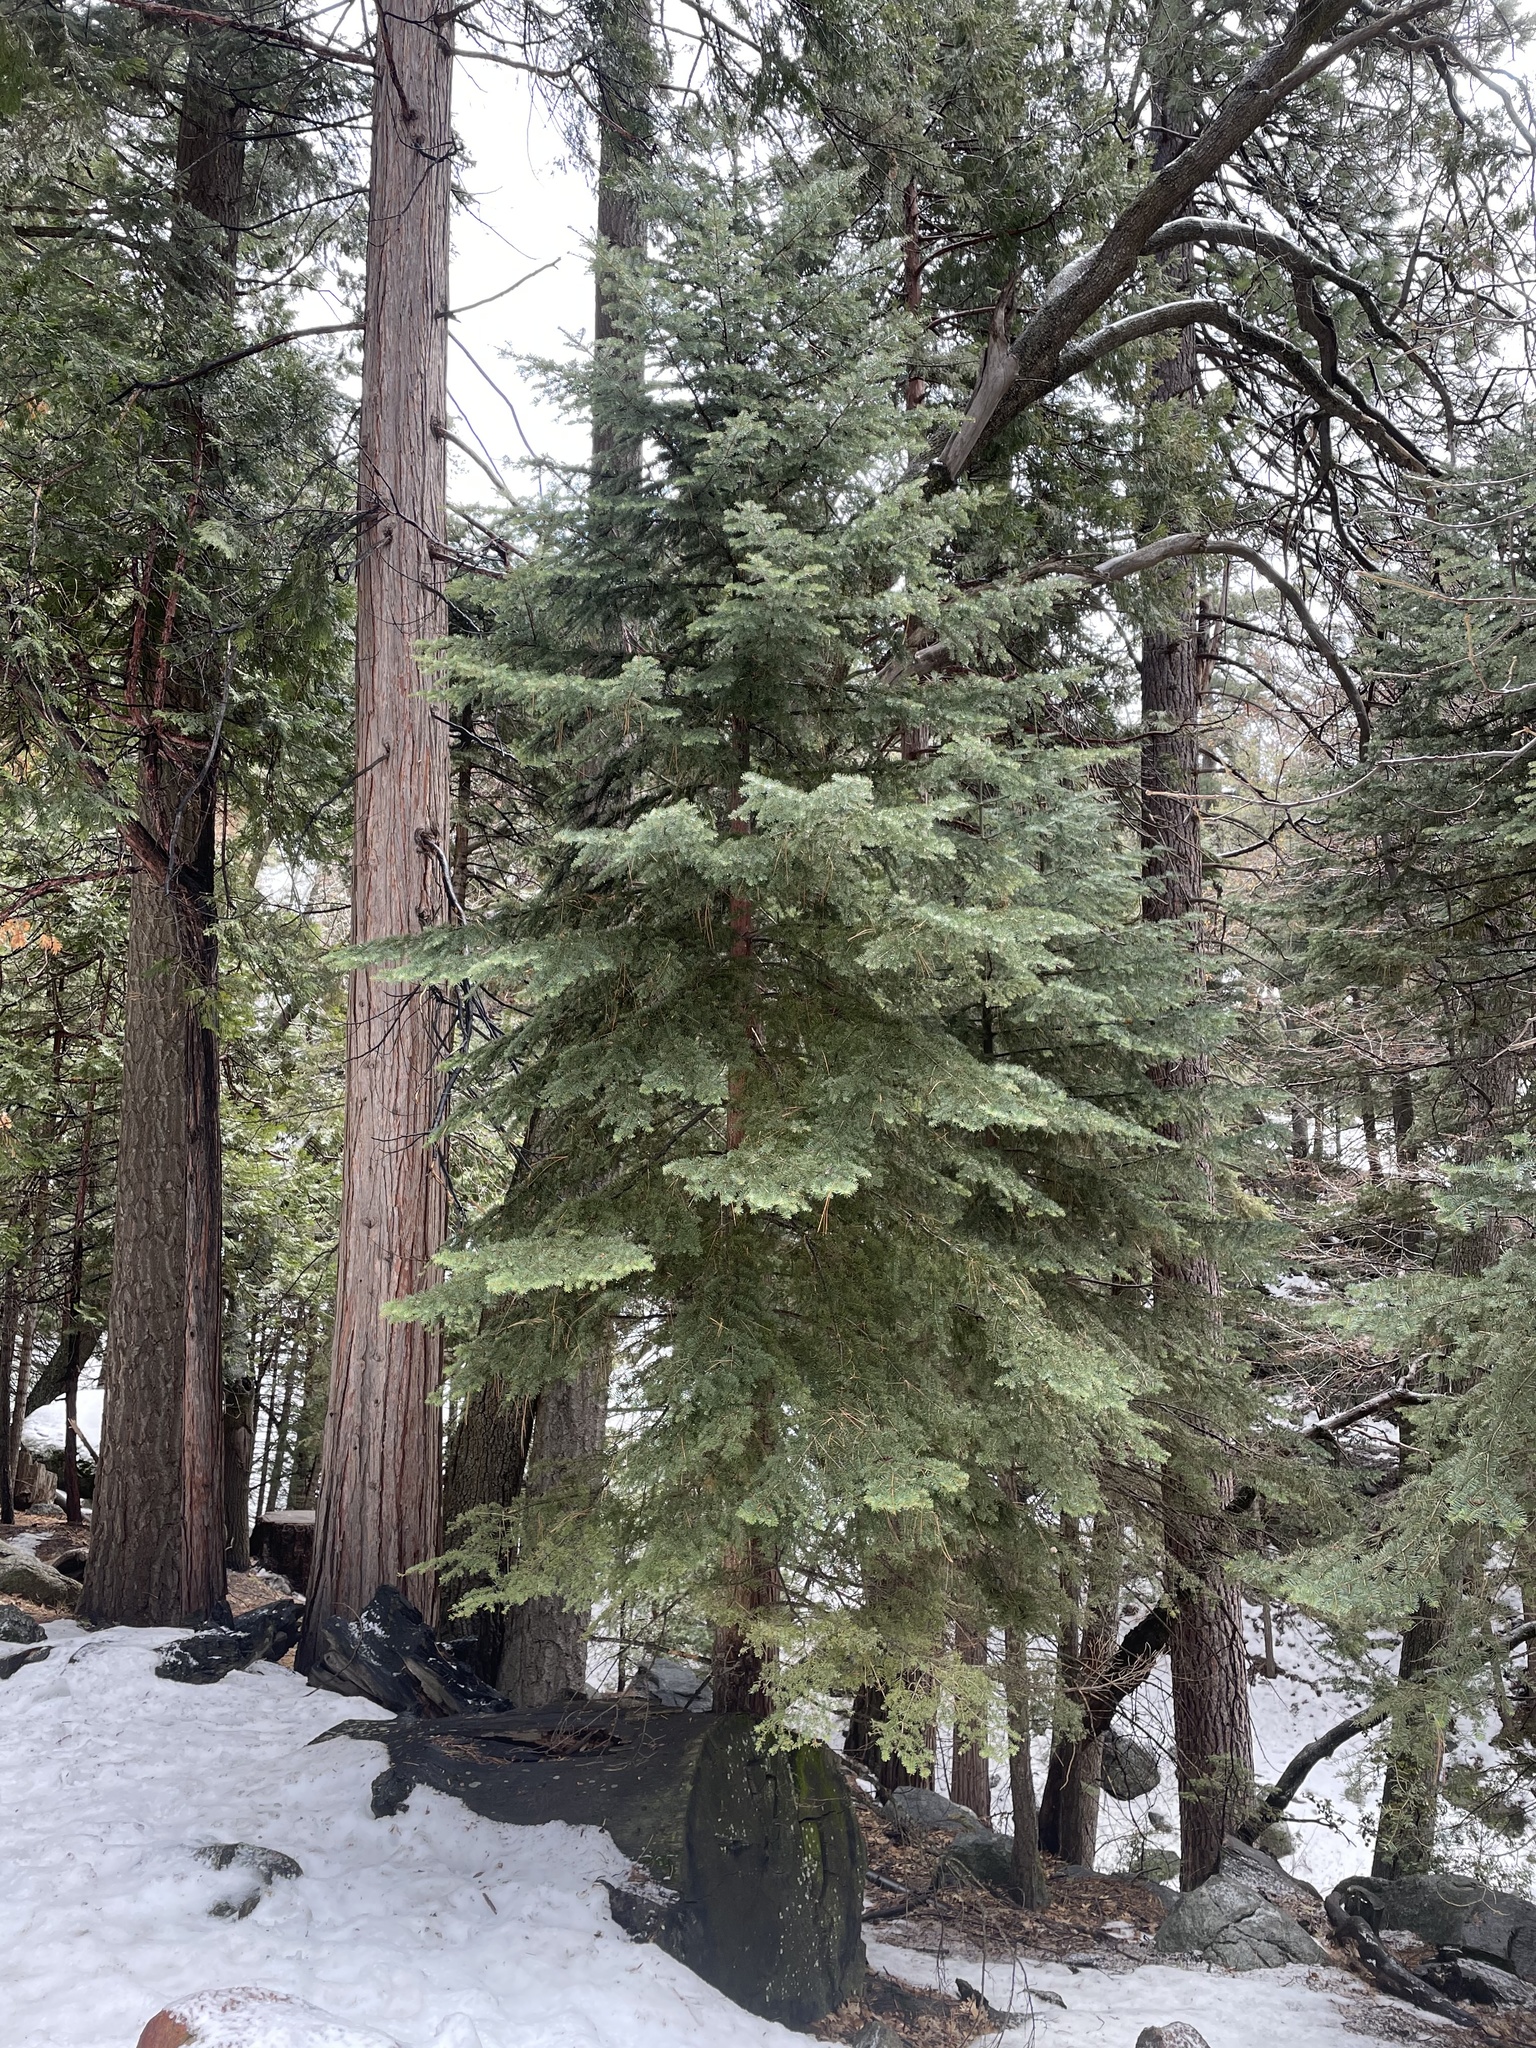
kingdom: Plantae
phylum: Tracheophyta
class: Pinopsida
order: Pinales
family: Pinaceae
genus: Abies
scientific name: Abies concolor
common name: Colorado fir
